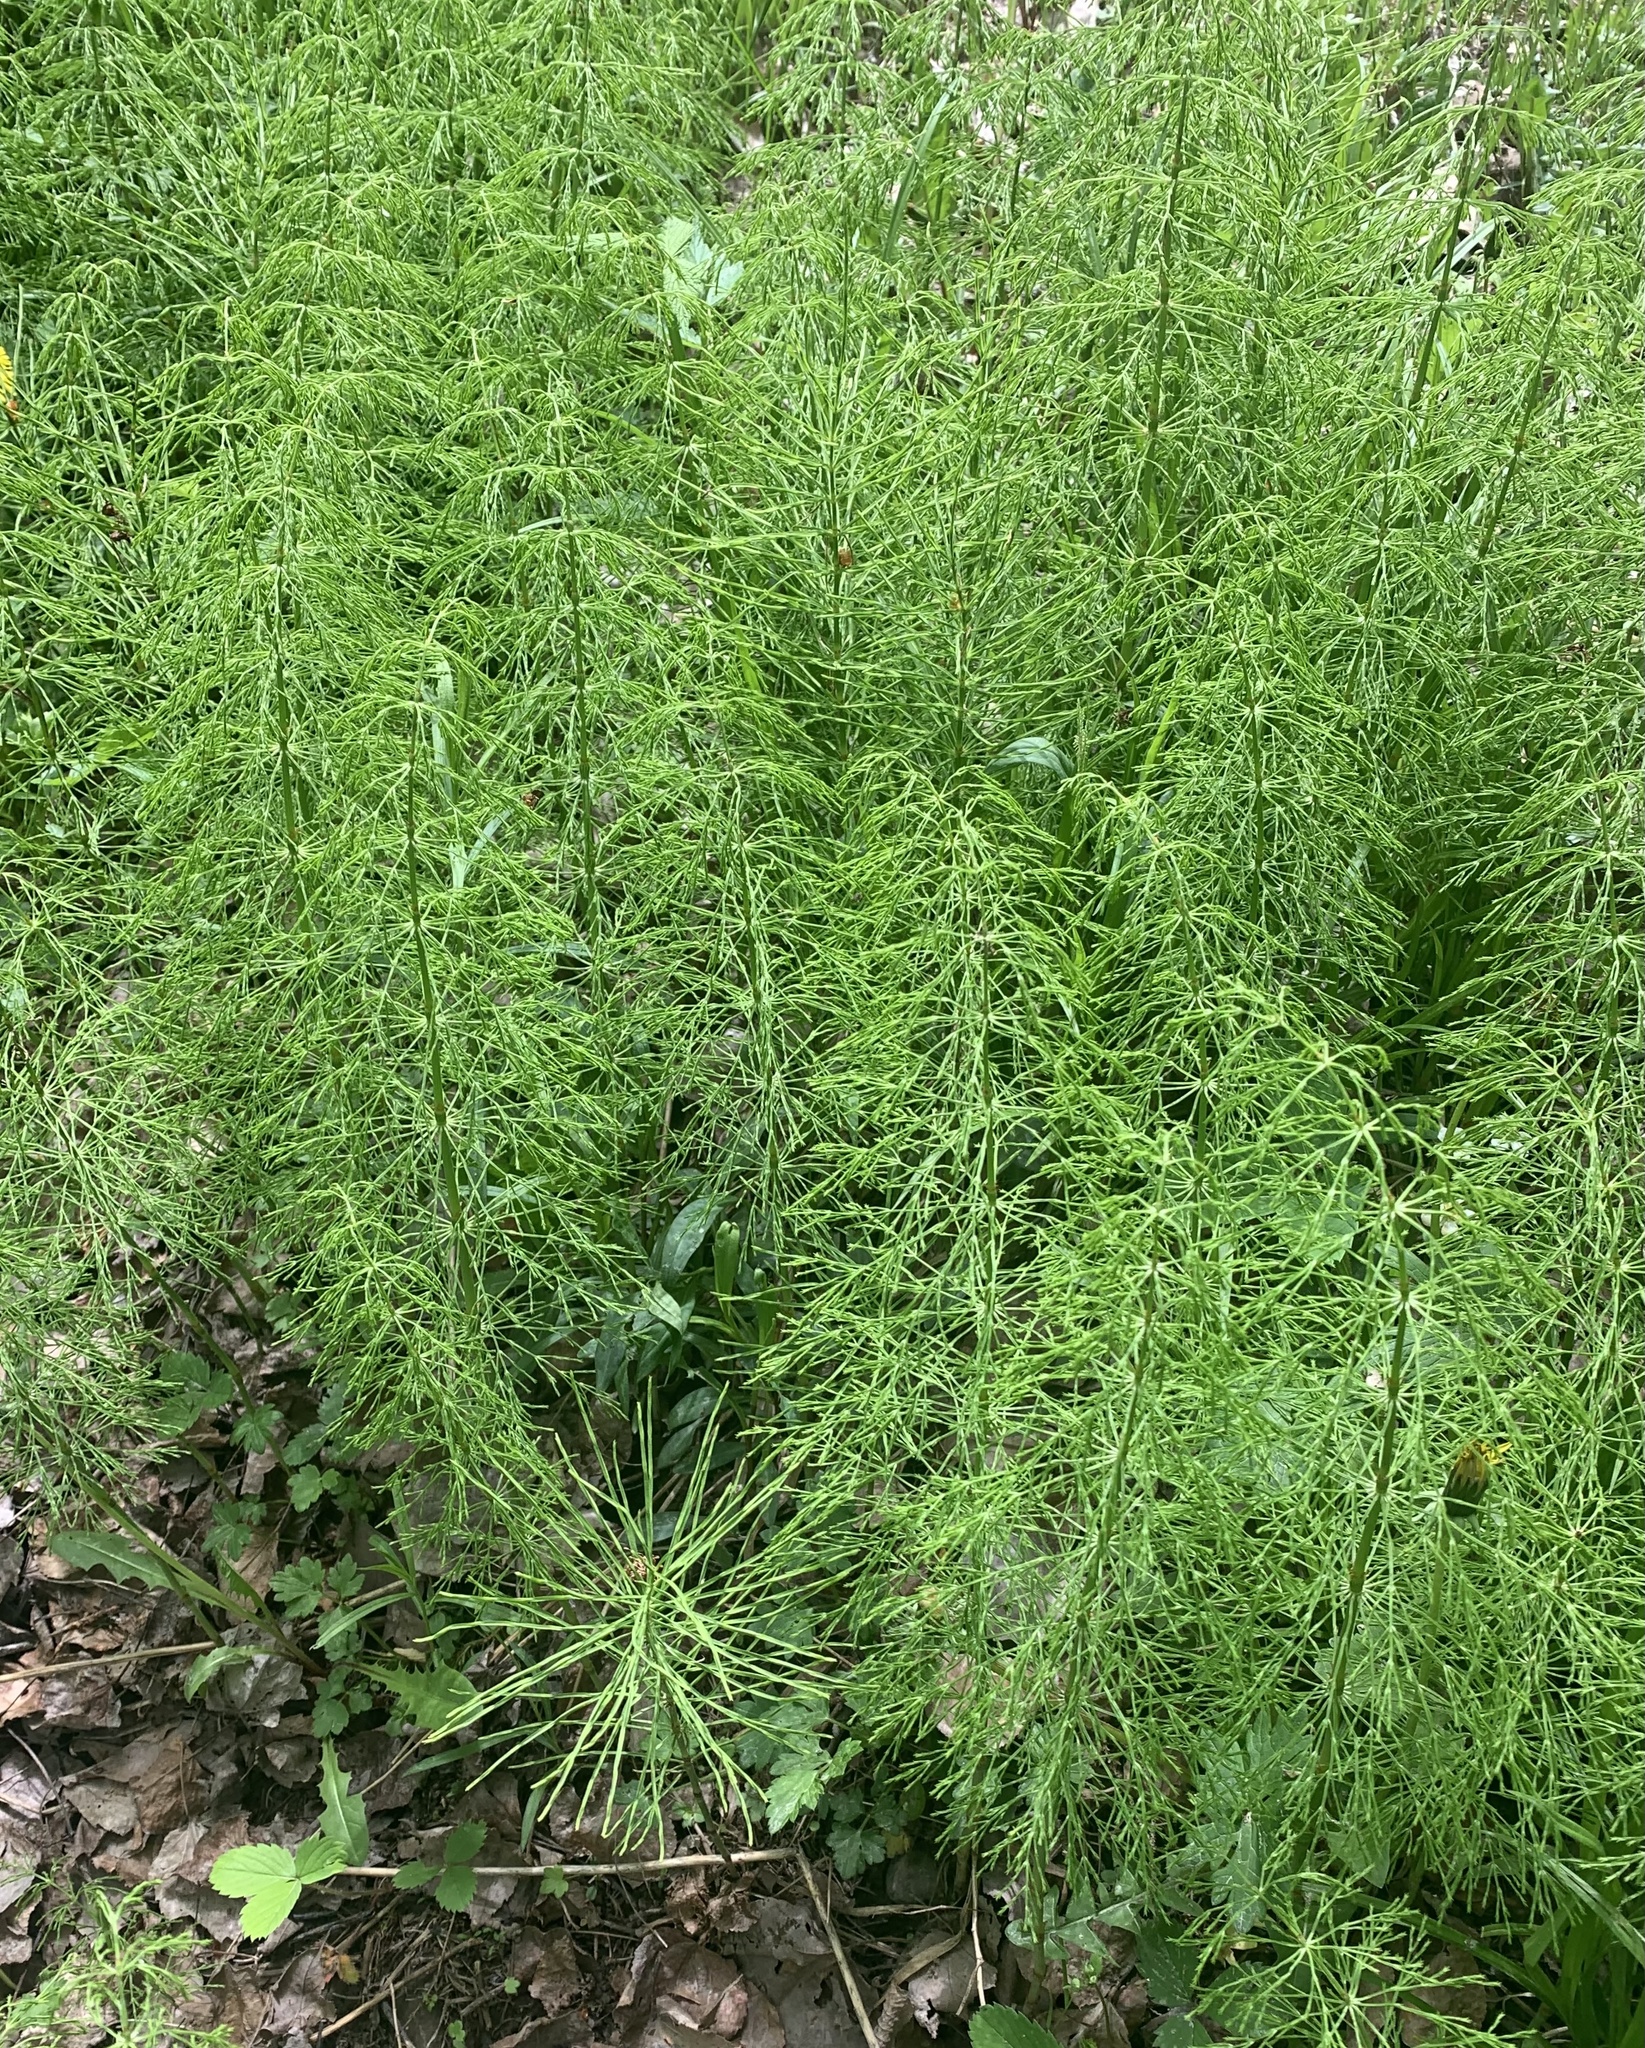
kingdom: Plantae
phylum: Tracheophyta
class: Polypodiopsida
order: Equisetales
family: Equisetaceae
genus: Equisetum
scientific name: Equisetum sylvaticum
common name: Wood horsetail
